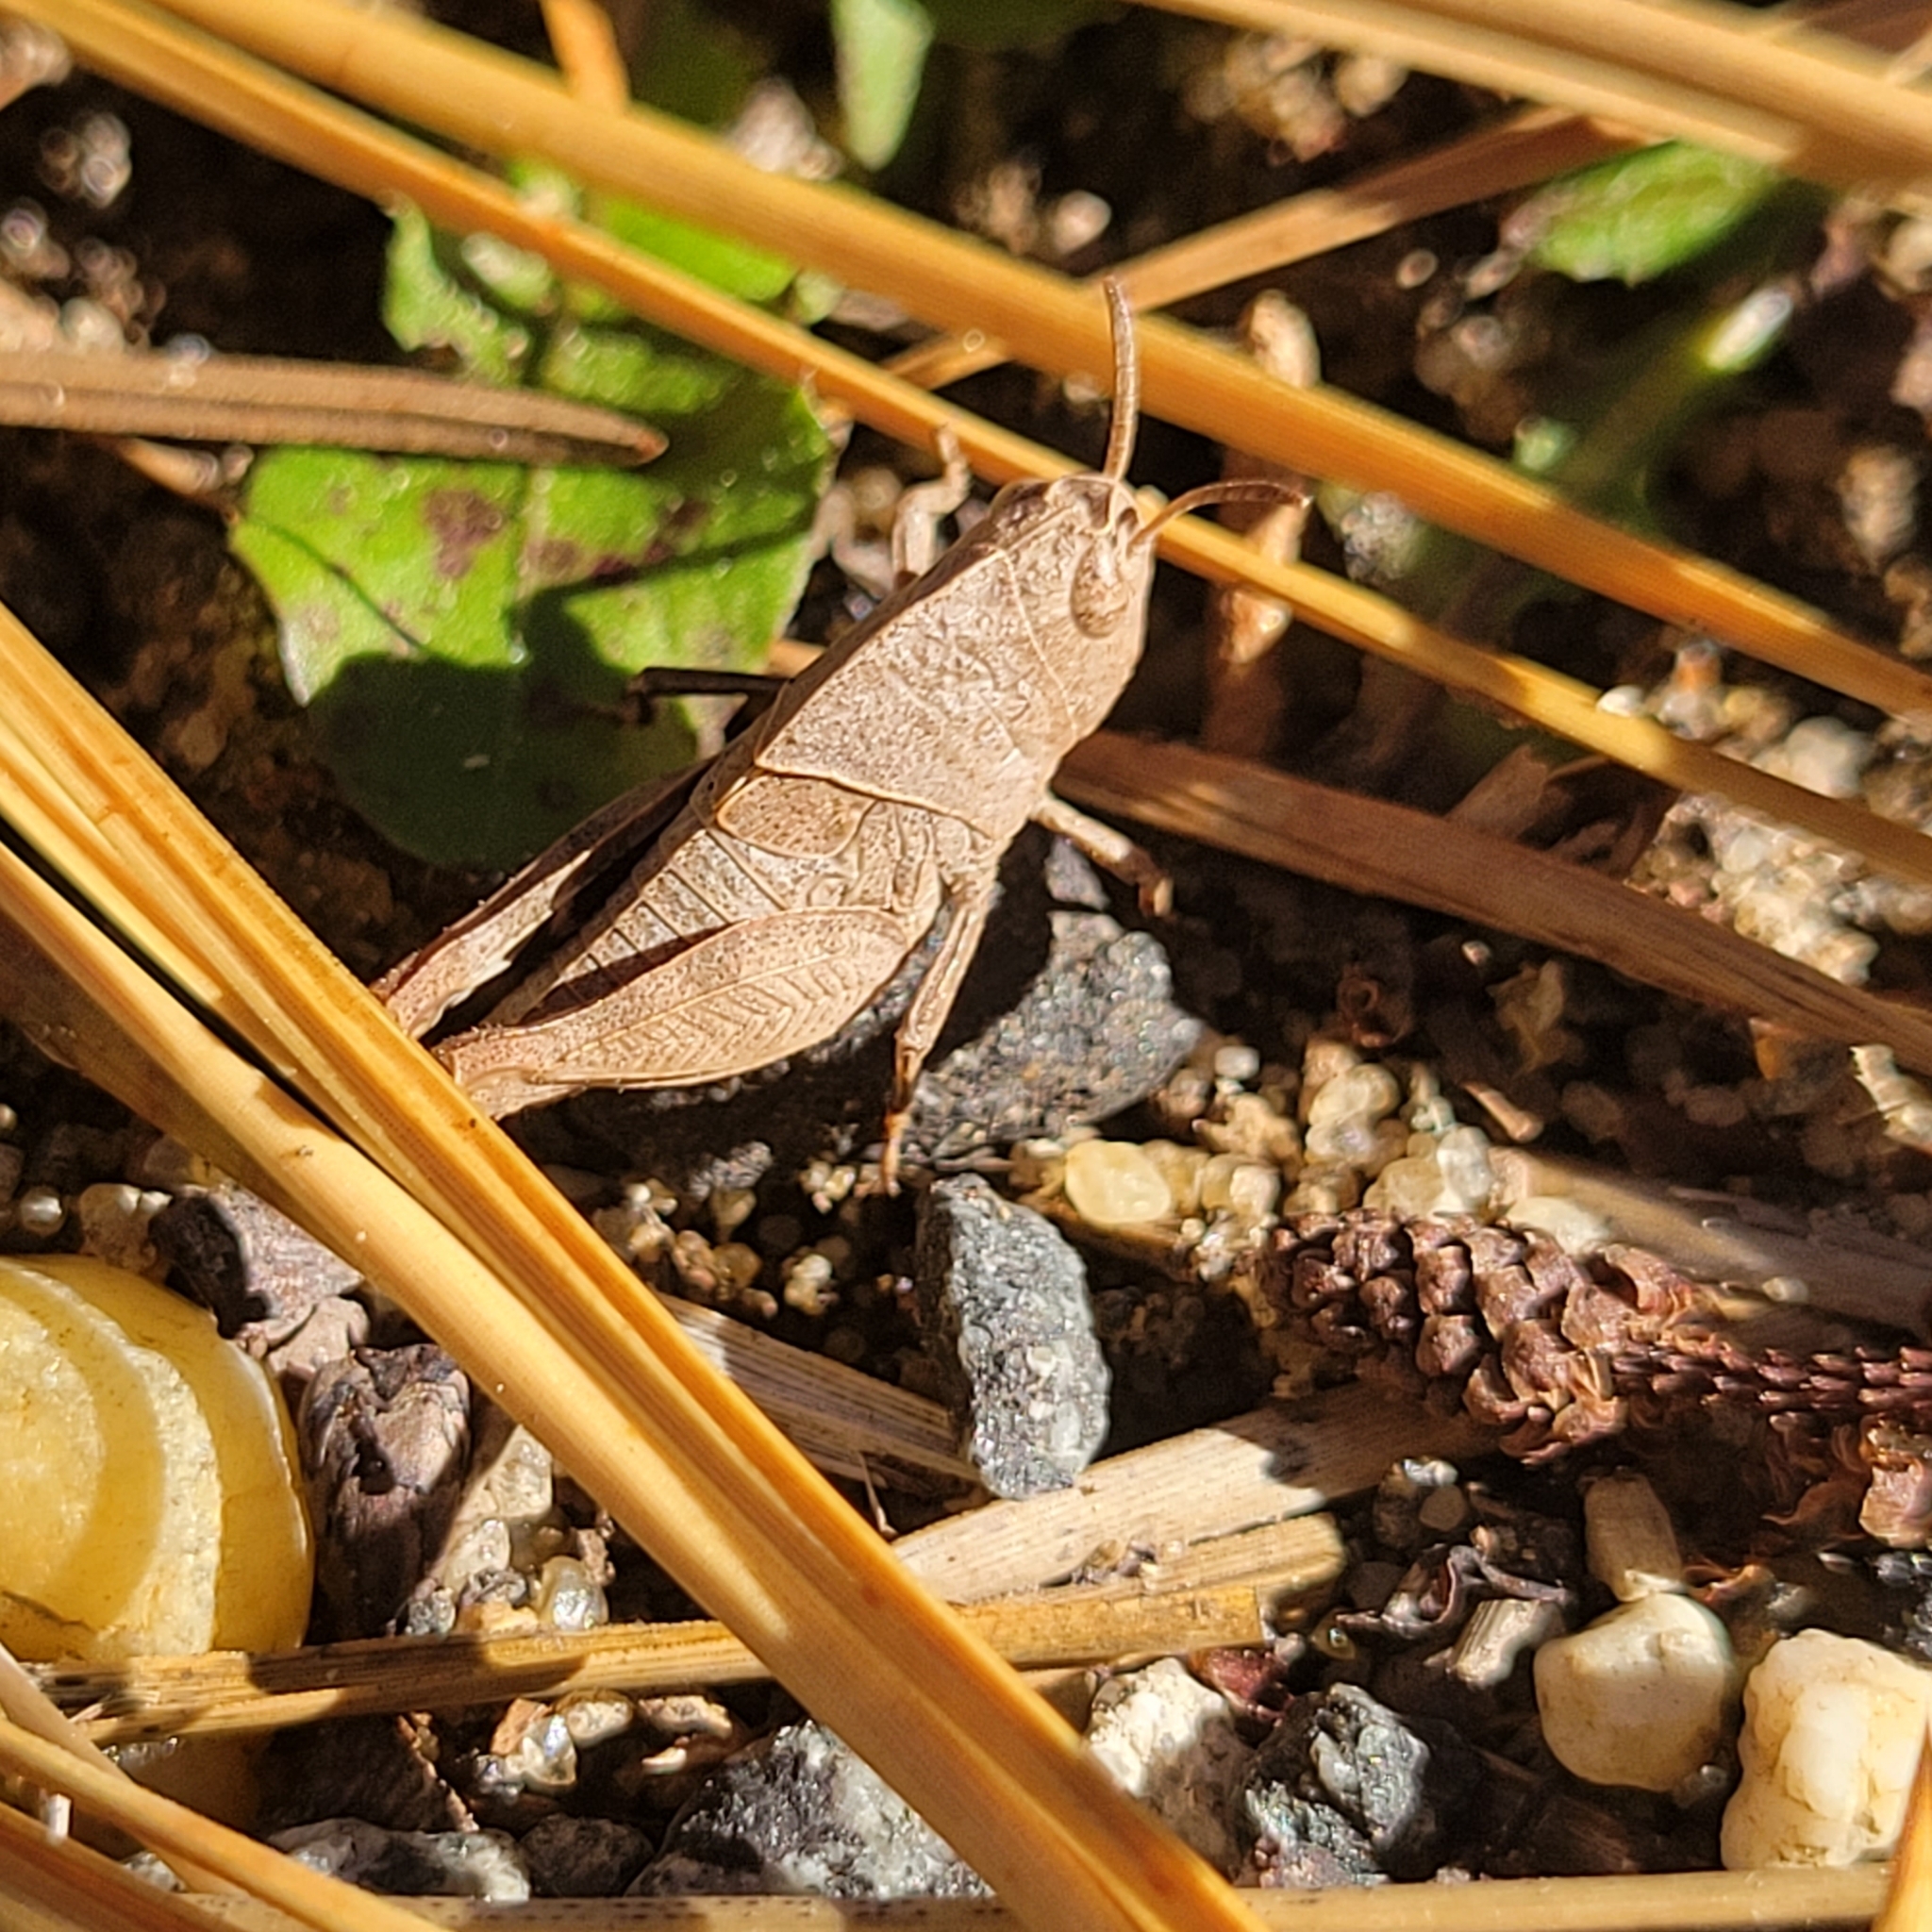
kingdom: Animalia
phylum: Arthropoda
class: Insecta
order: Orthoptera
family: Acrididae
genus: Arphia
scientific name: Arphia sulphurea
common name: Spring yellow-winged locust
